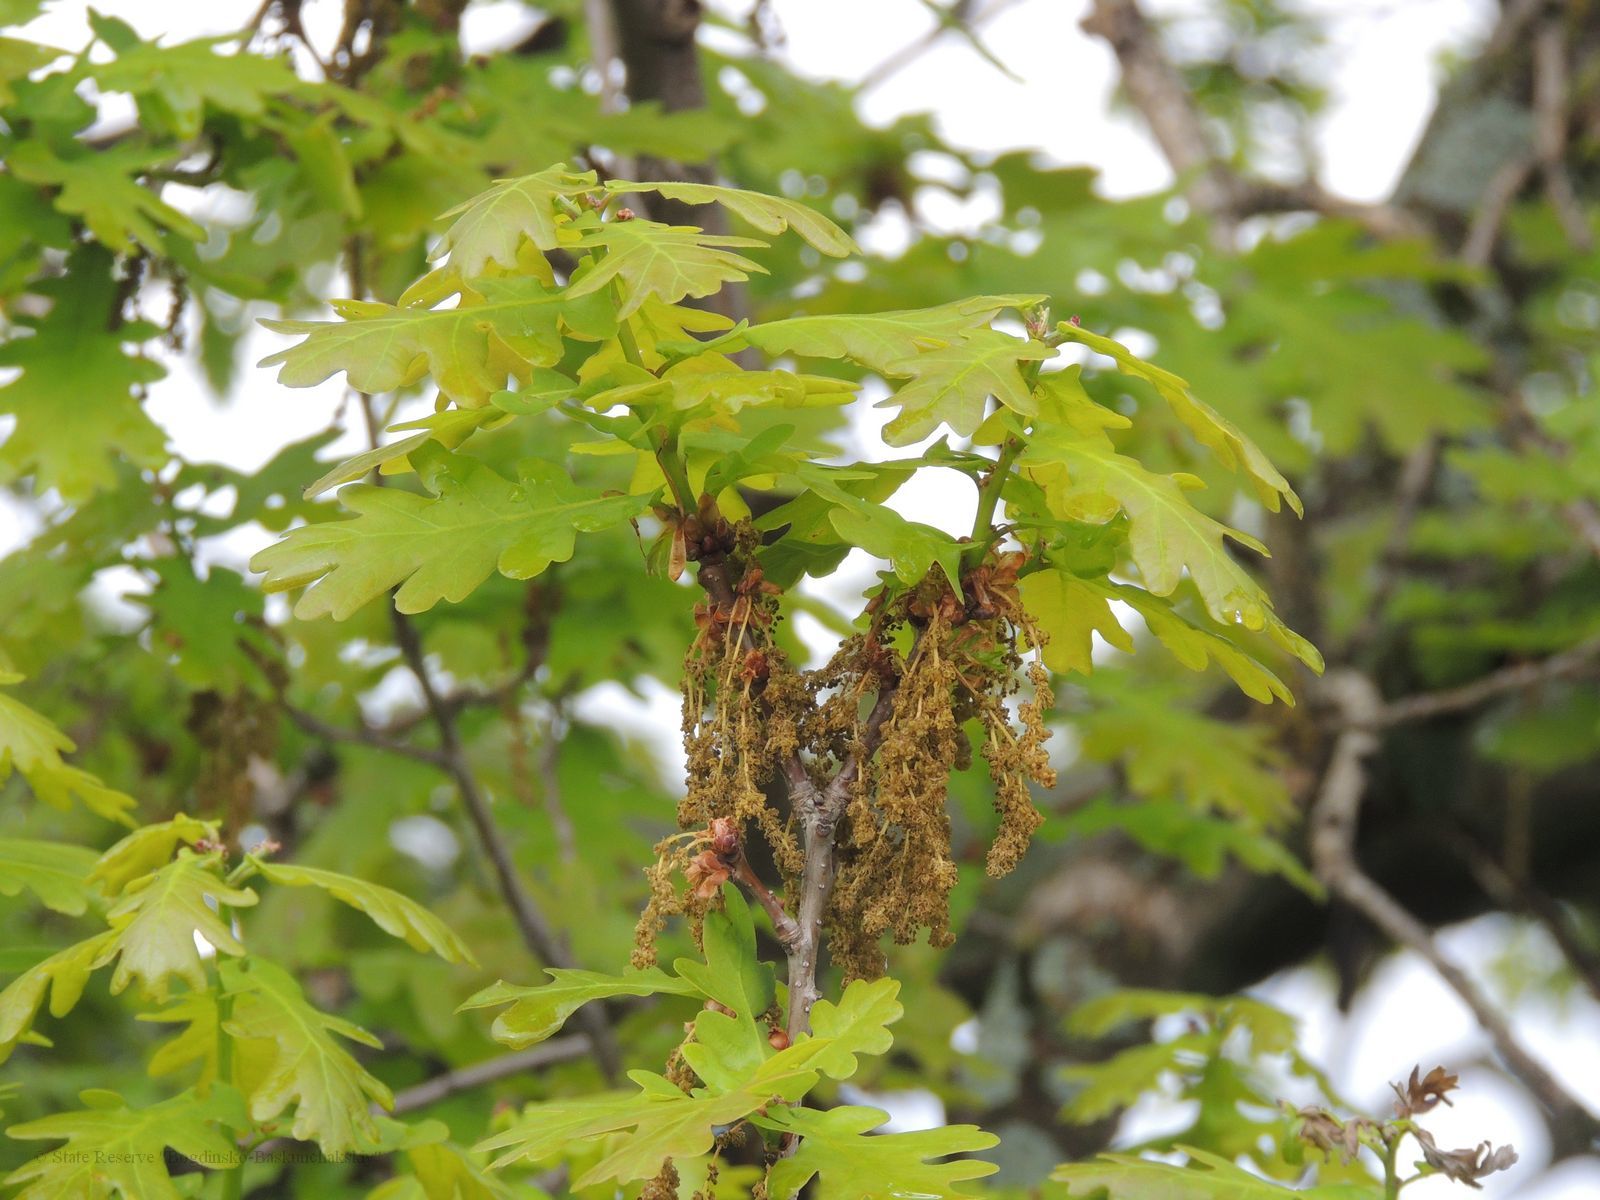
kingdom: Plantae
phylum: Tracheophyta
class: Magnoliopsida
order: Fagales
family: Fagaceae
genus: Quercus
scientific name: Quercus robur
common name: Pedunculate oak
